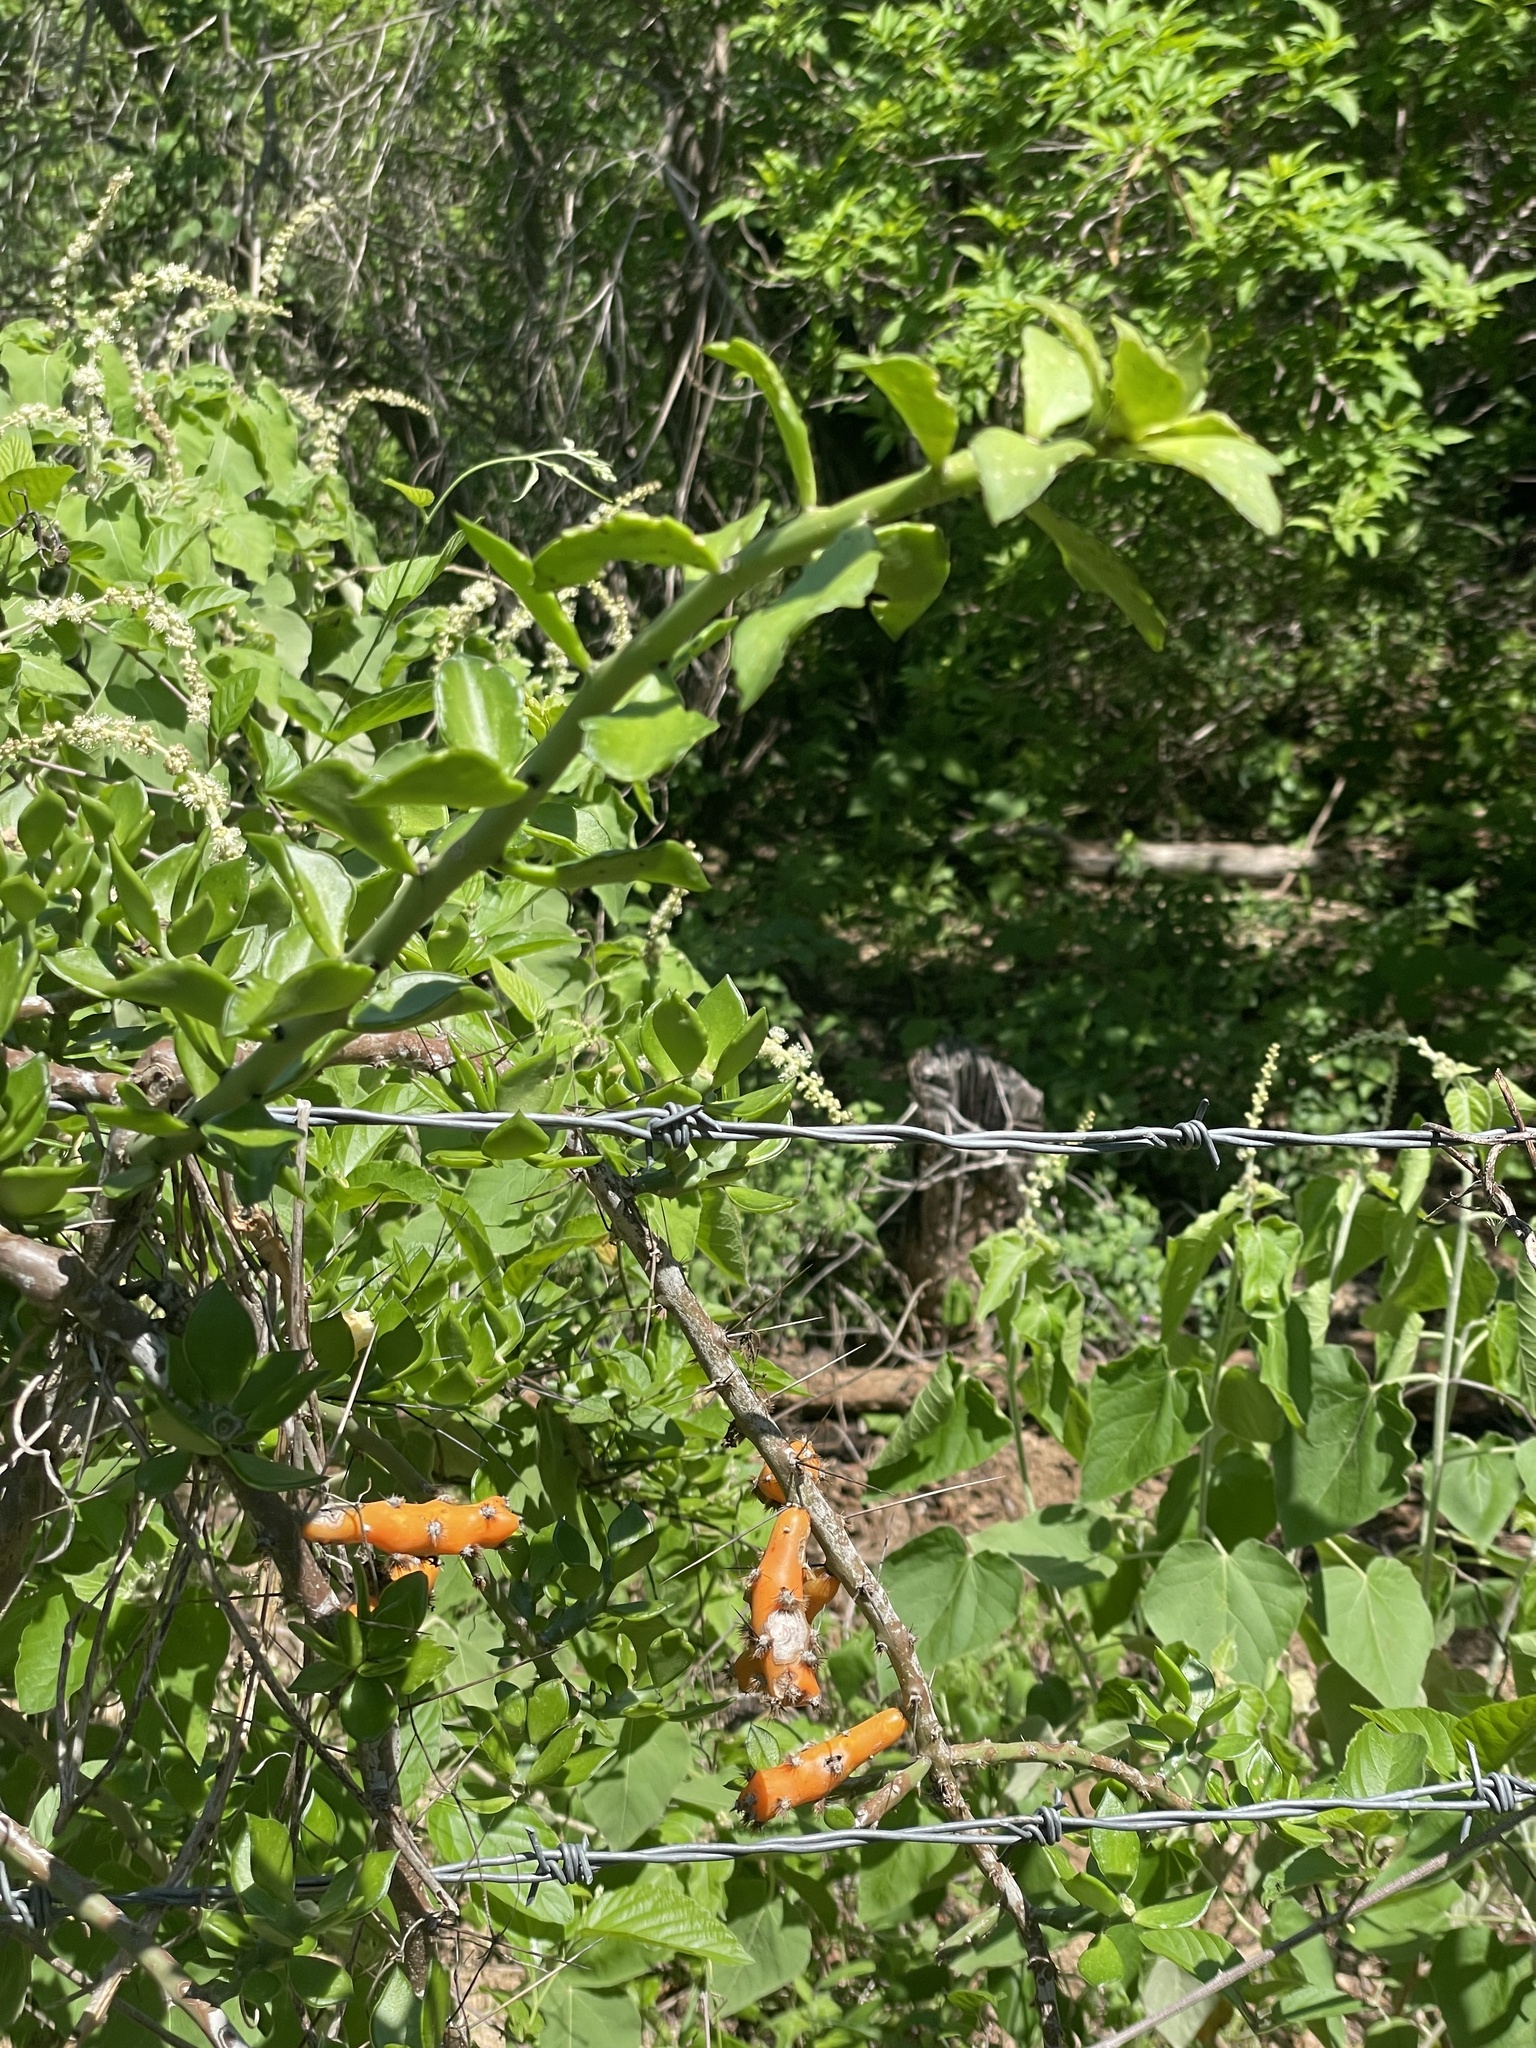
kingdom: Plantae
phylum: Tracheophyta
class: Magnoliopsida
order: Caryophyllales
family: Cactaceae
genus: Pereskiopsis
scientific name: Pereskiopsis porteri
